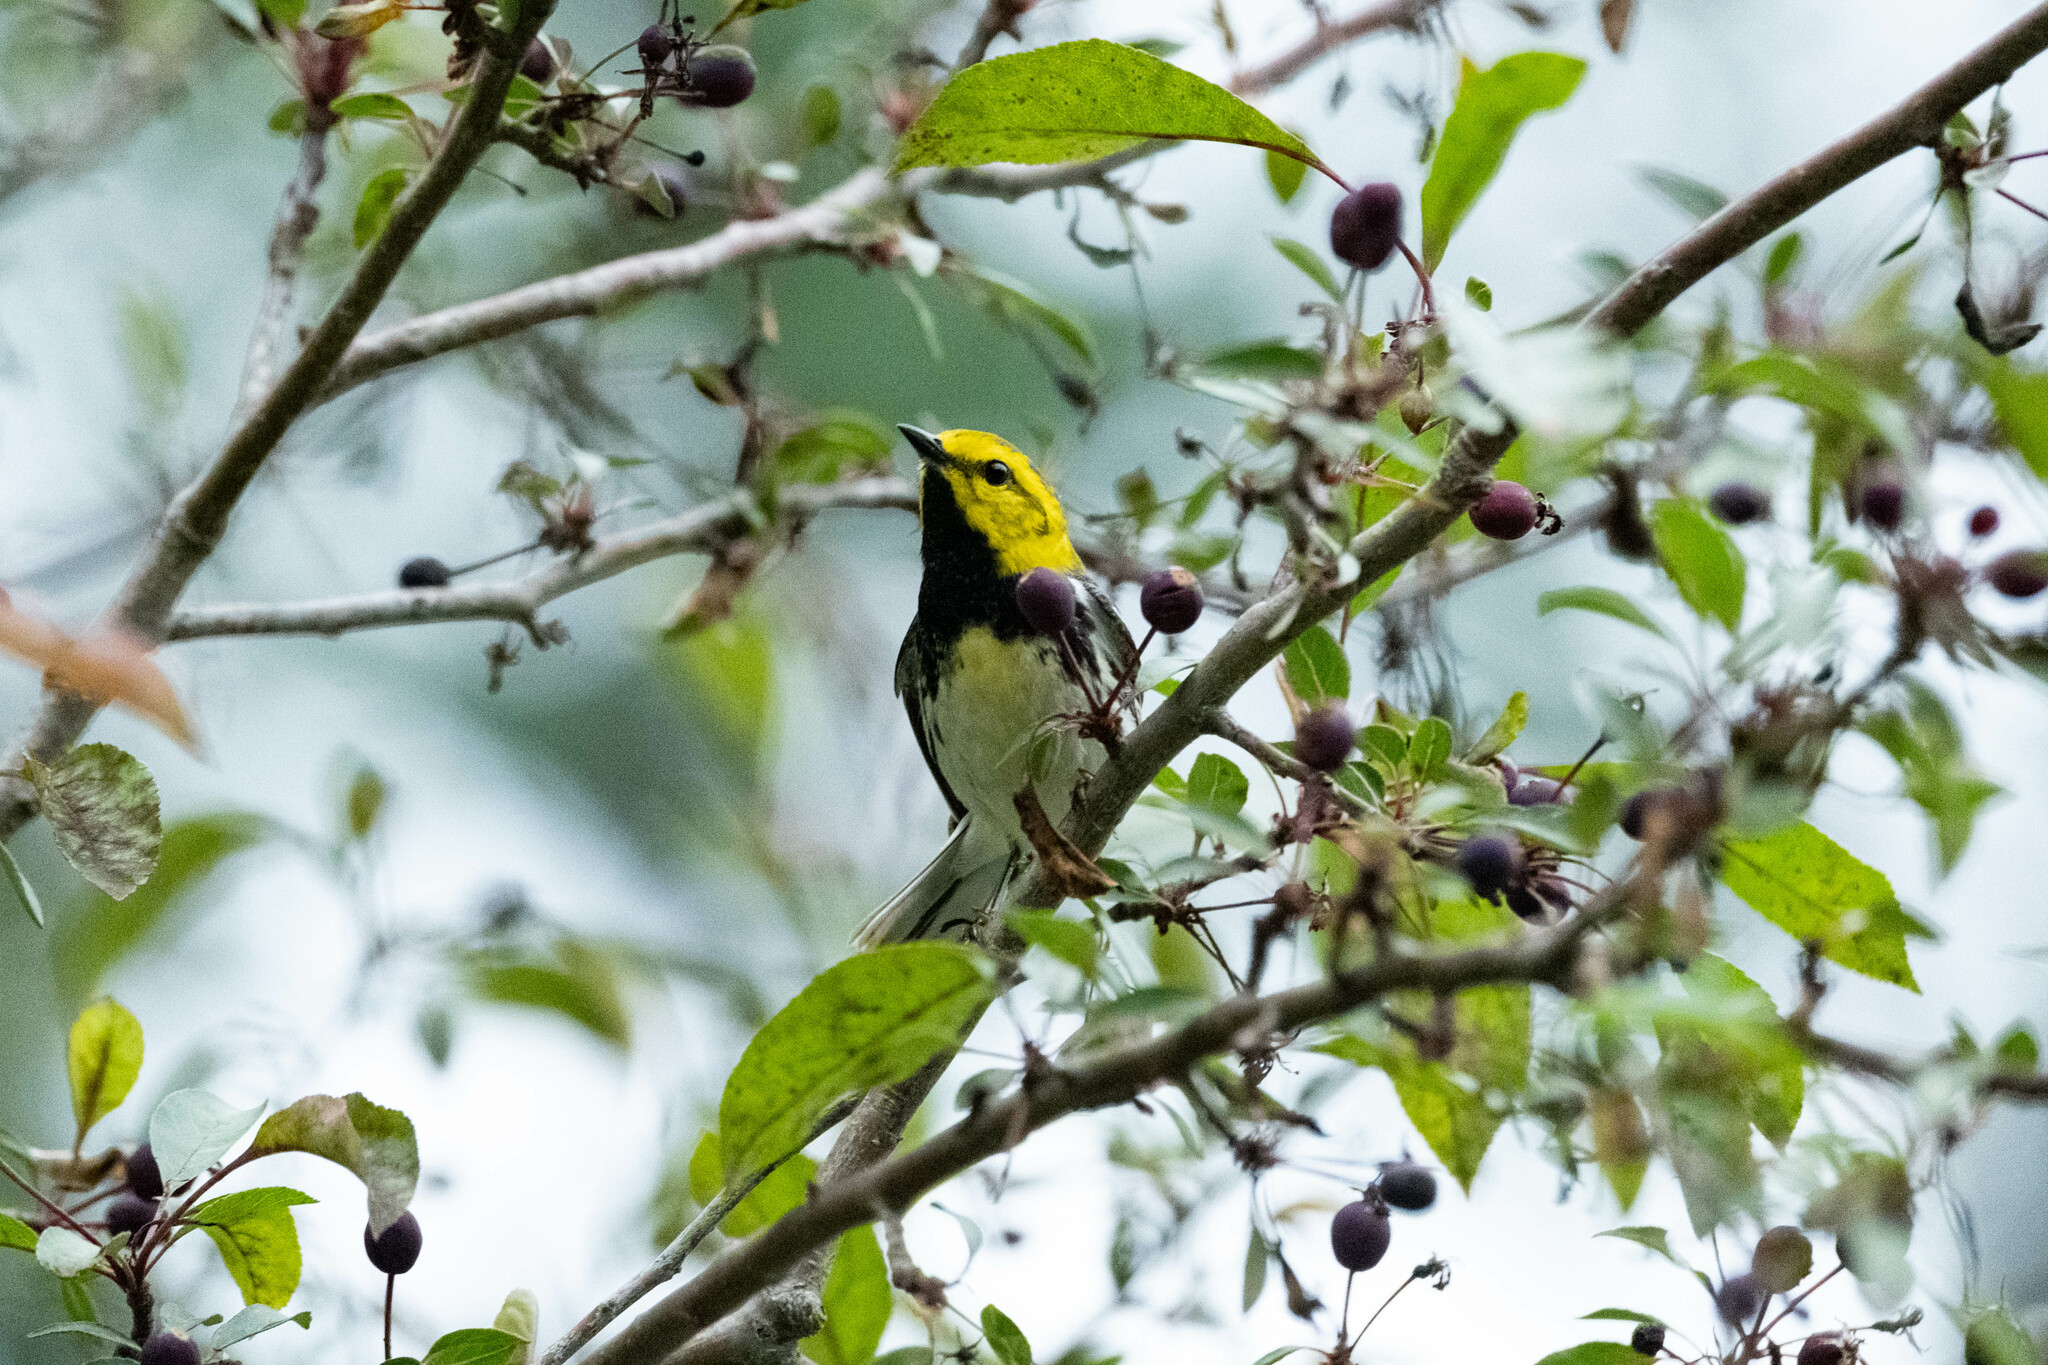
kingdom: Animalia
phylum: Chordata
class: Aves
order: Passeriformes
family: Parulidae
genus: Setophaga
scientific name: Setophaga virens
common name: Black-throated green warbler
